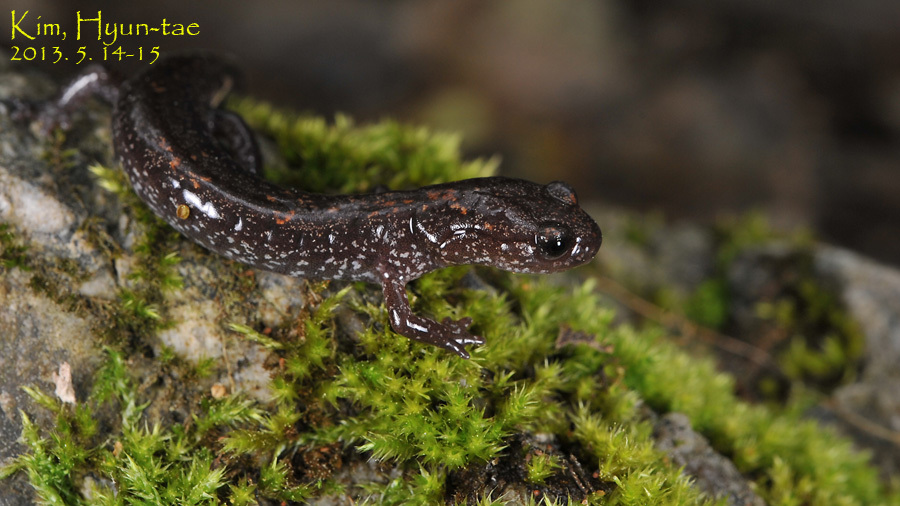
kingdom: Animalia
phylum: Chordata
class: Amphibia
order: Caudata
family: Plethodontidae
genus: Karsenia
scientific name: Karsenia koreana
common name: Korean crevice salamander
